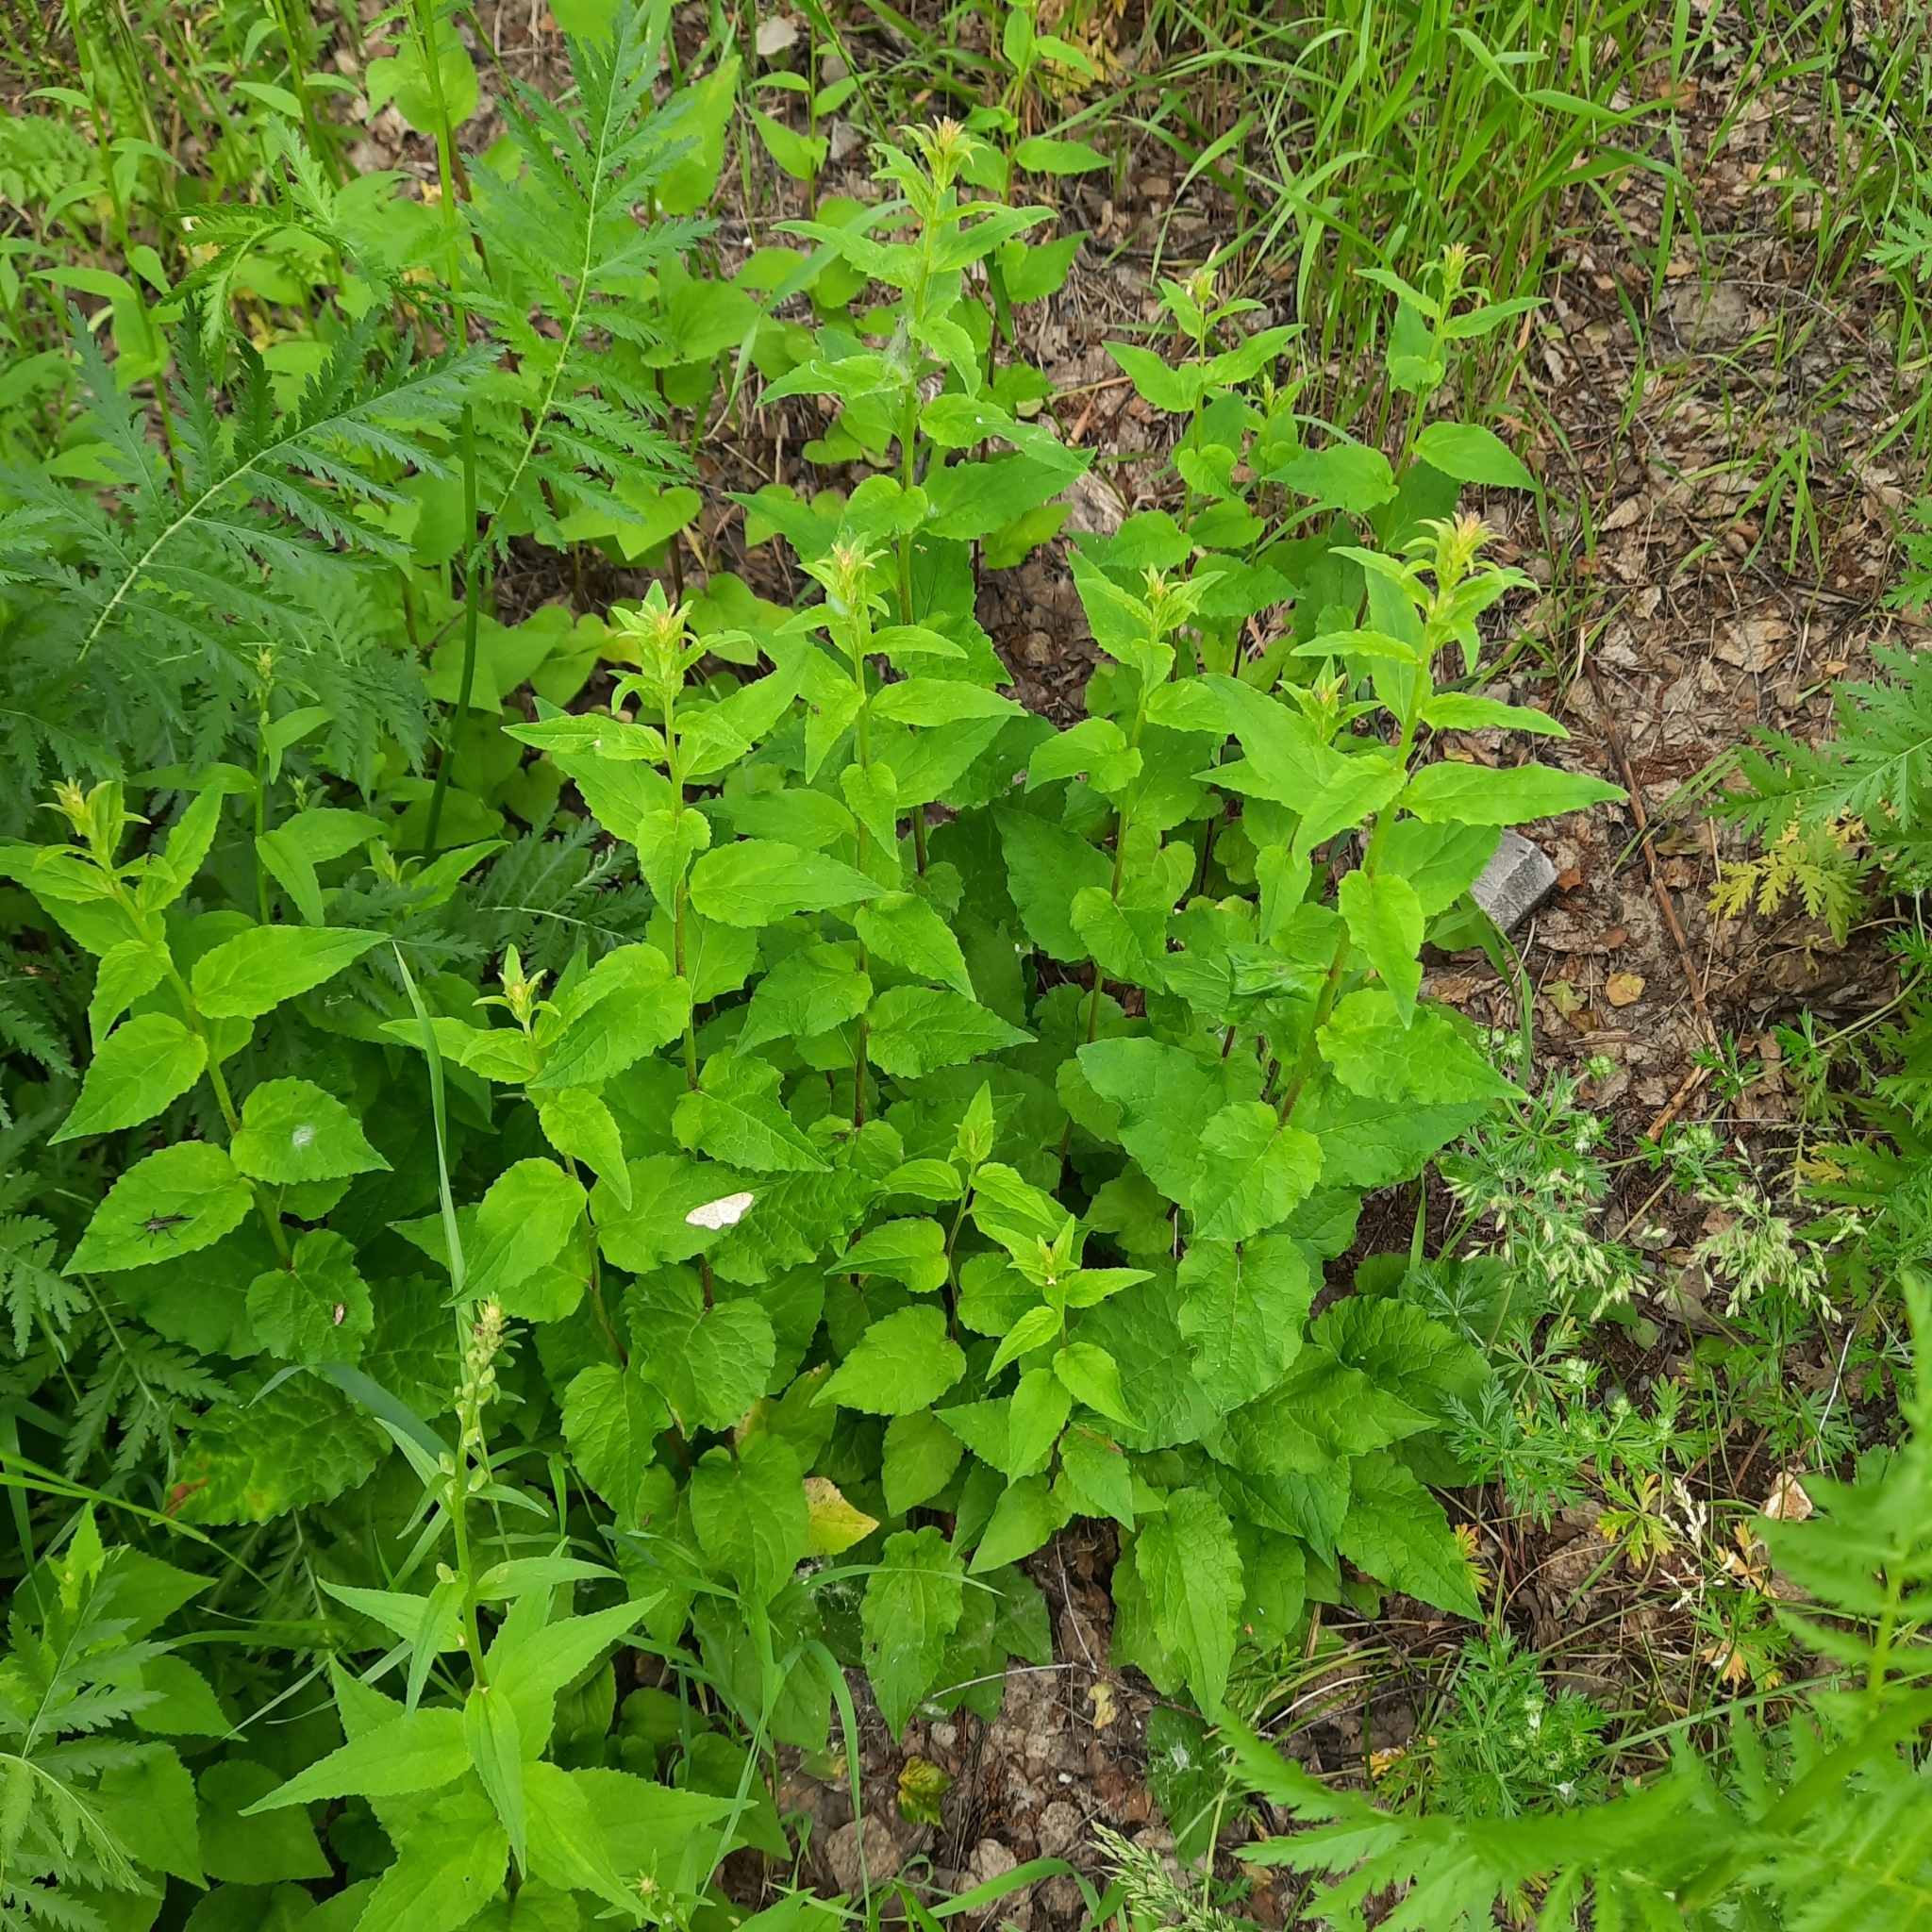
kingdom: Plantae
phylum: Tracheophyta
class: Magnoliopsida
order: Asterales
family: Campanulaceae
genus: Campanula
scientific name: Campanula rapunculoides
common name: Creeping bellflower
